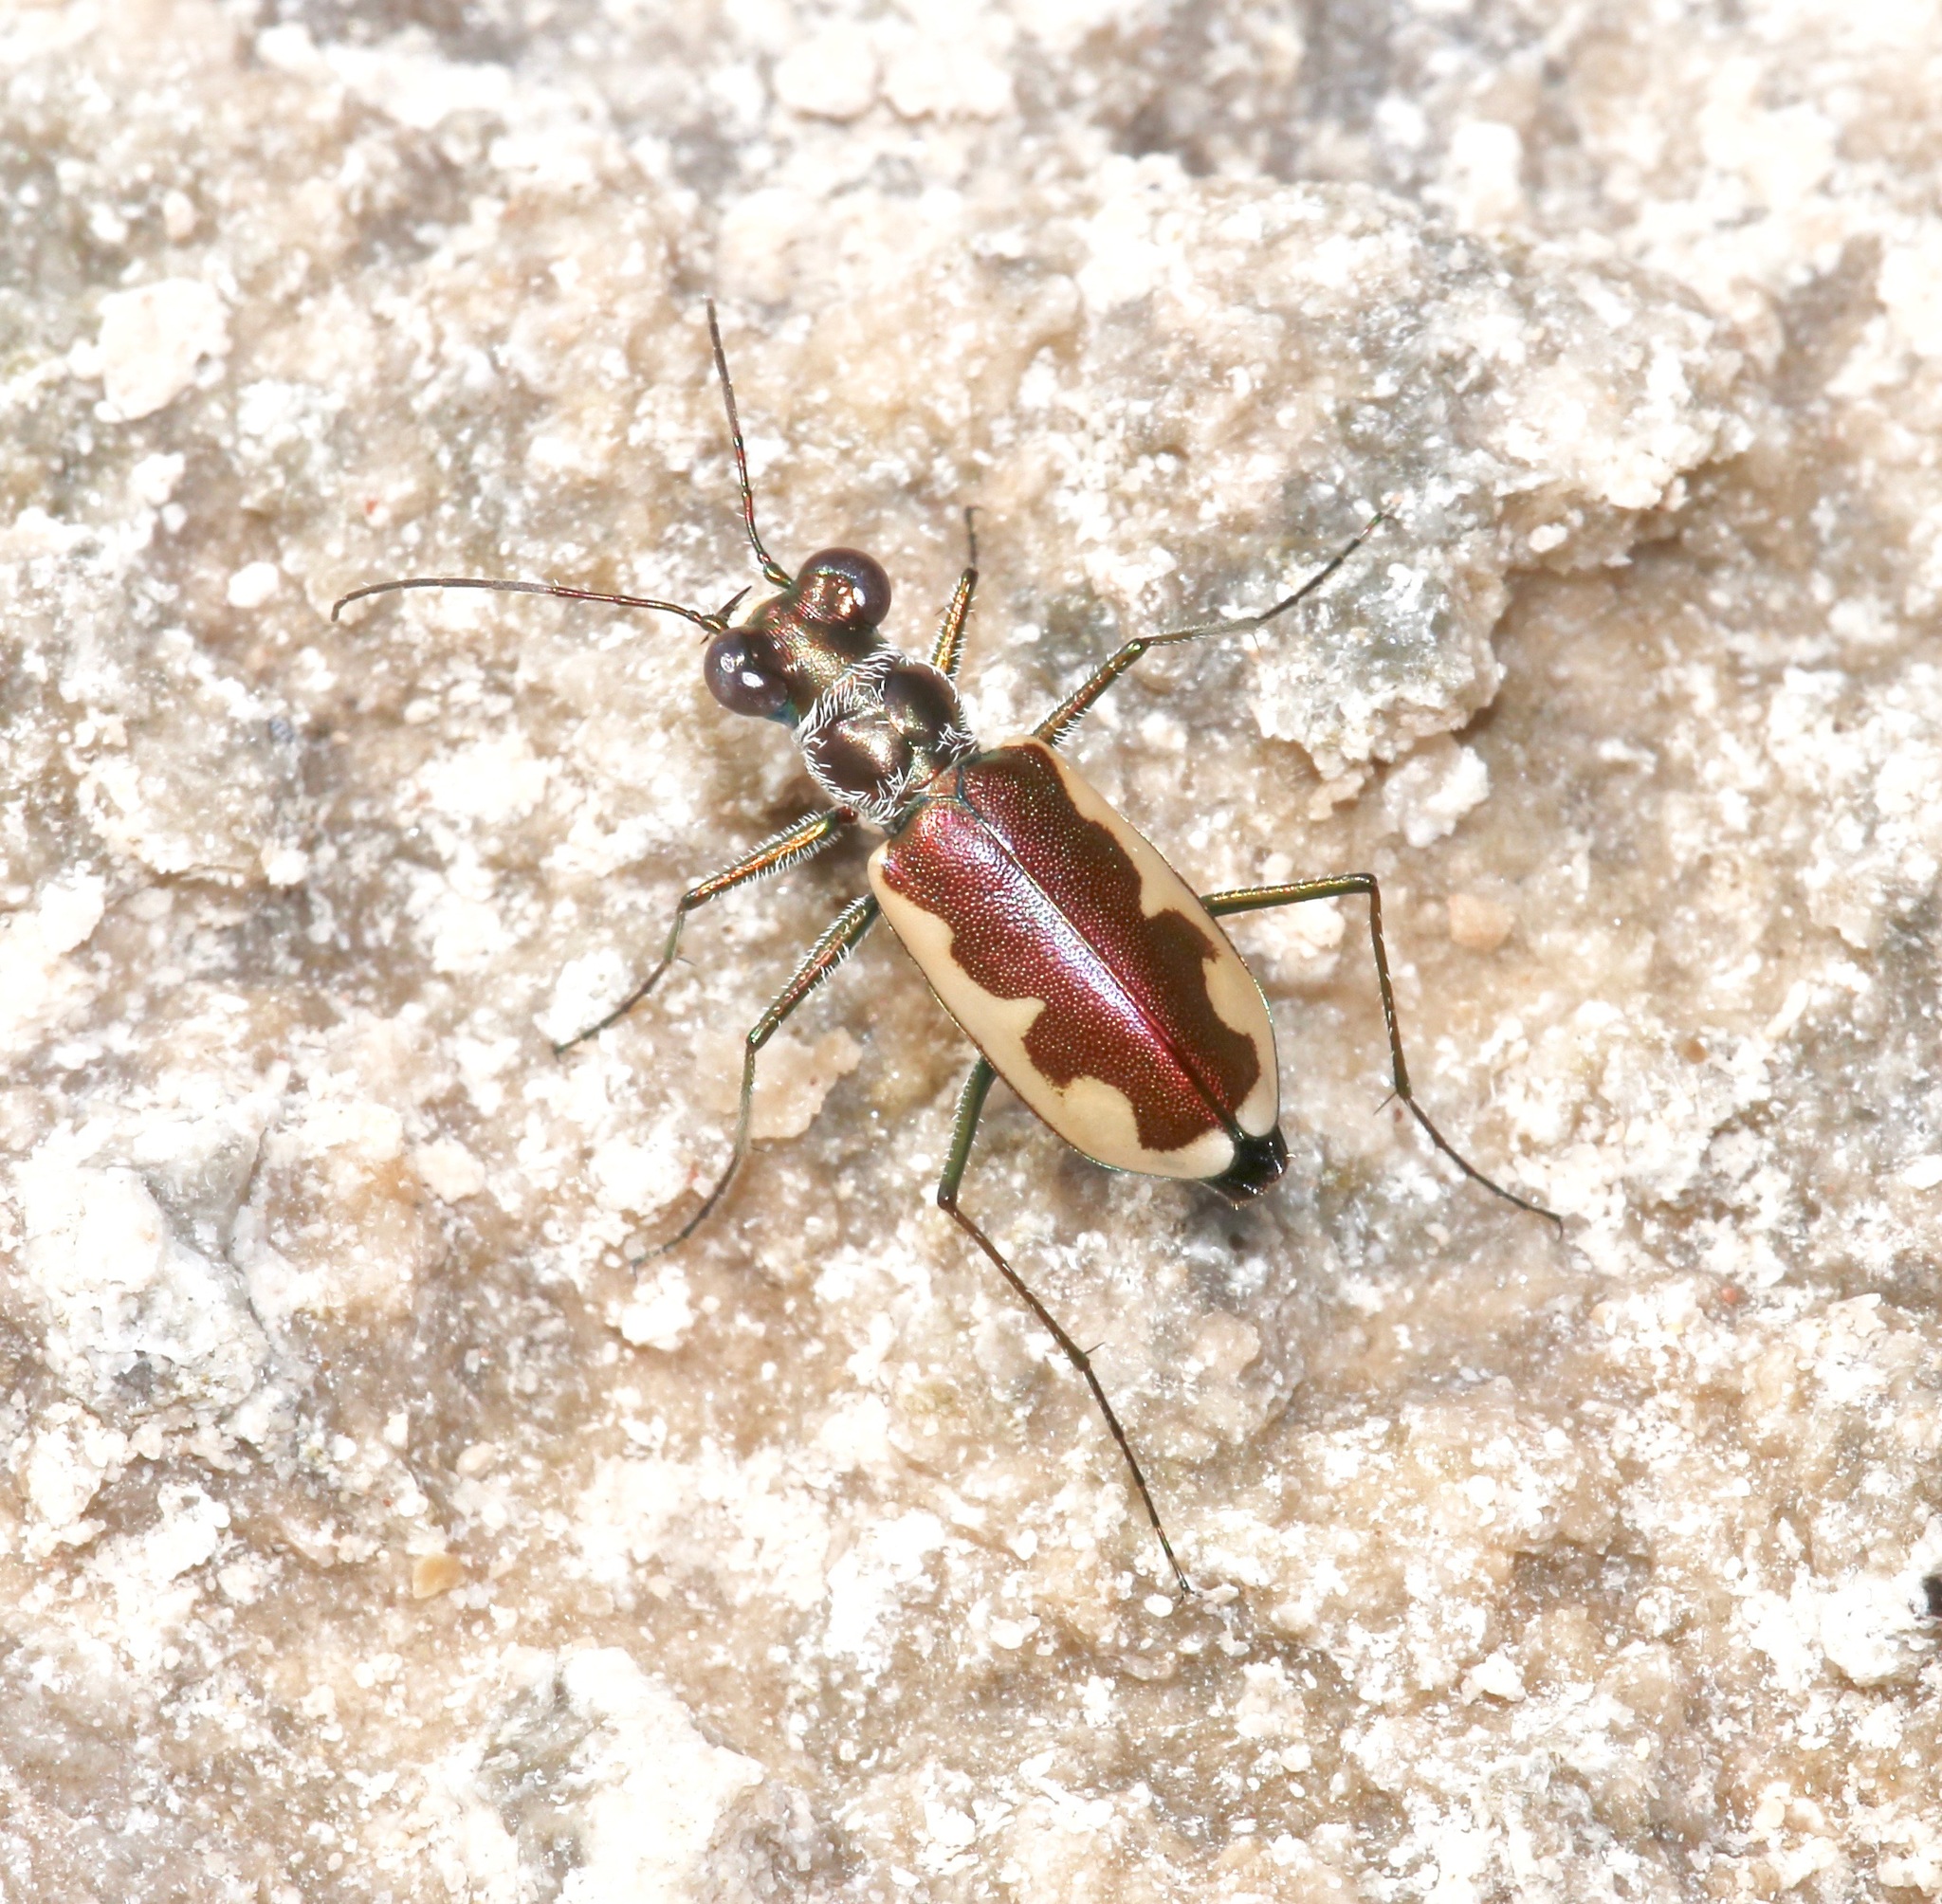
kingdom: Animalia
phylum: Arthropoda
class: Insecta
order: Coleoptera
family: Carabidae
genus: Eunota
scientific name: Eunota circumpicta
